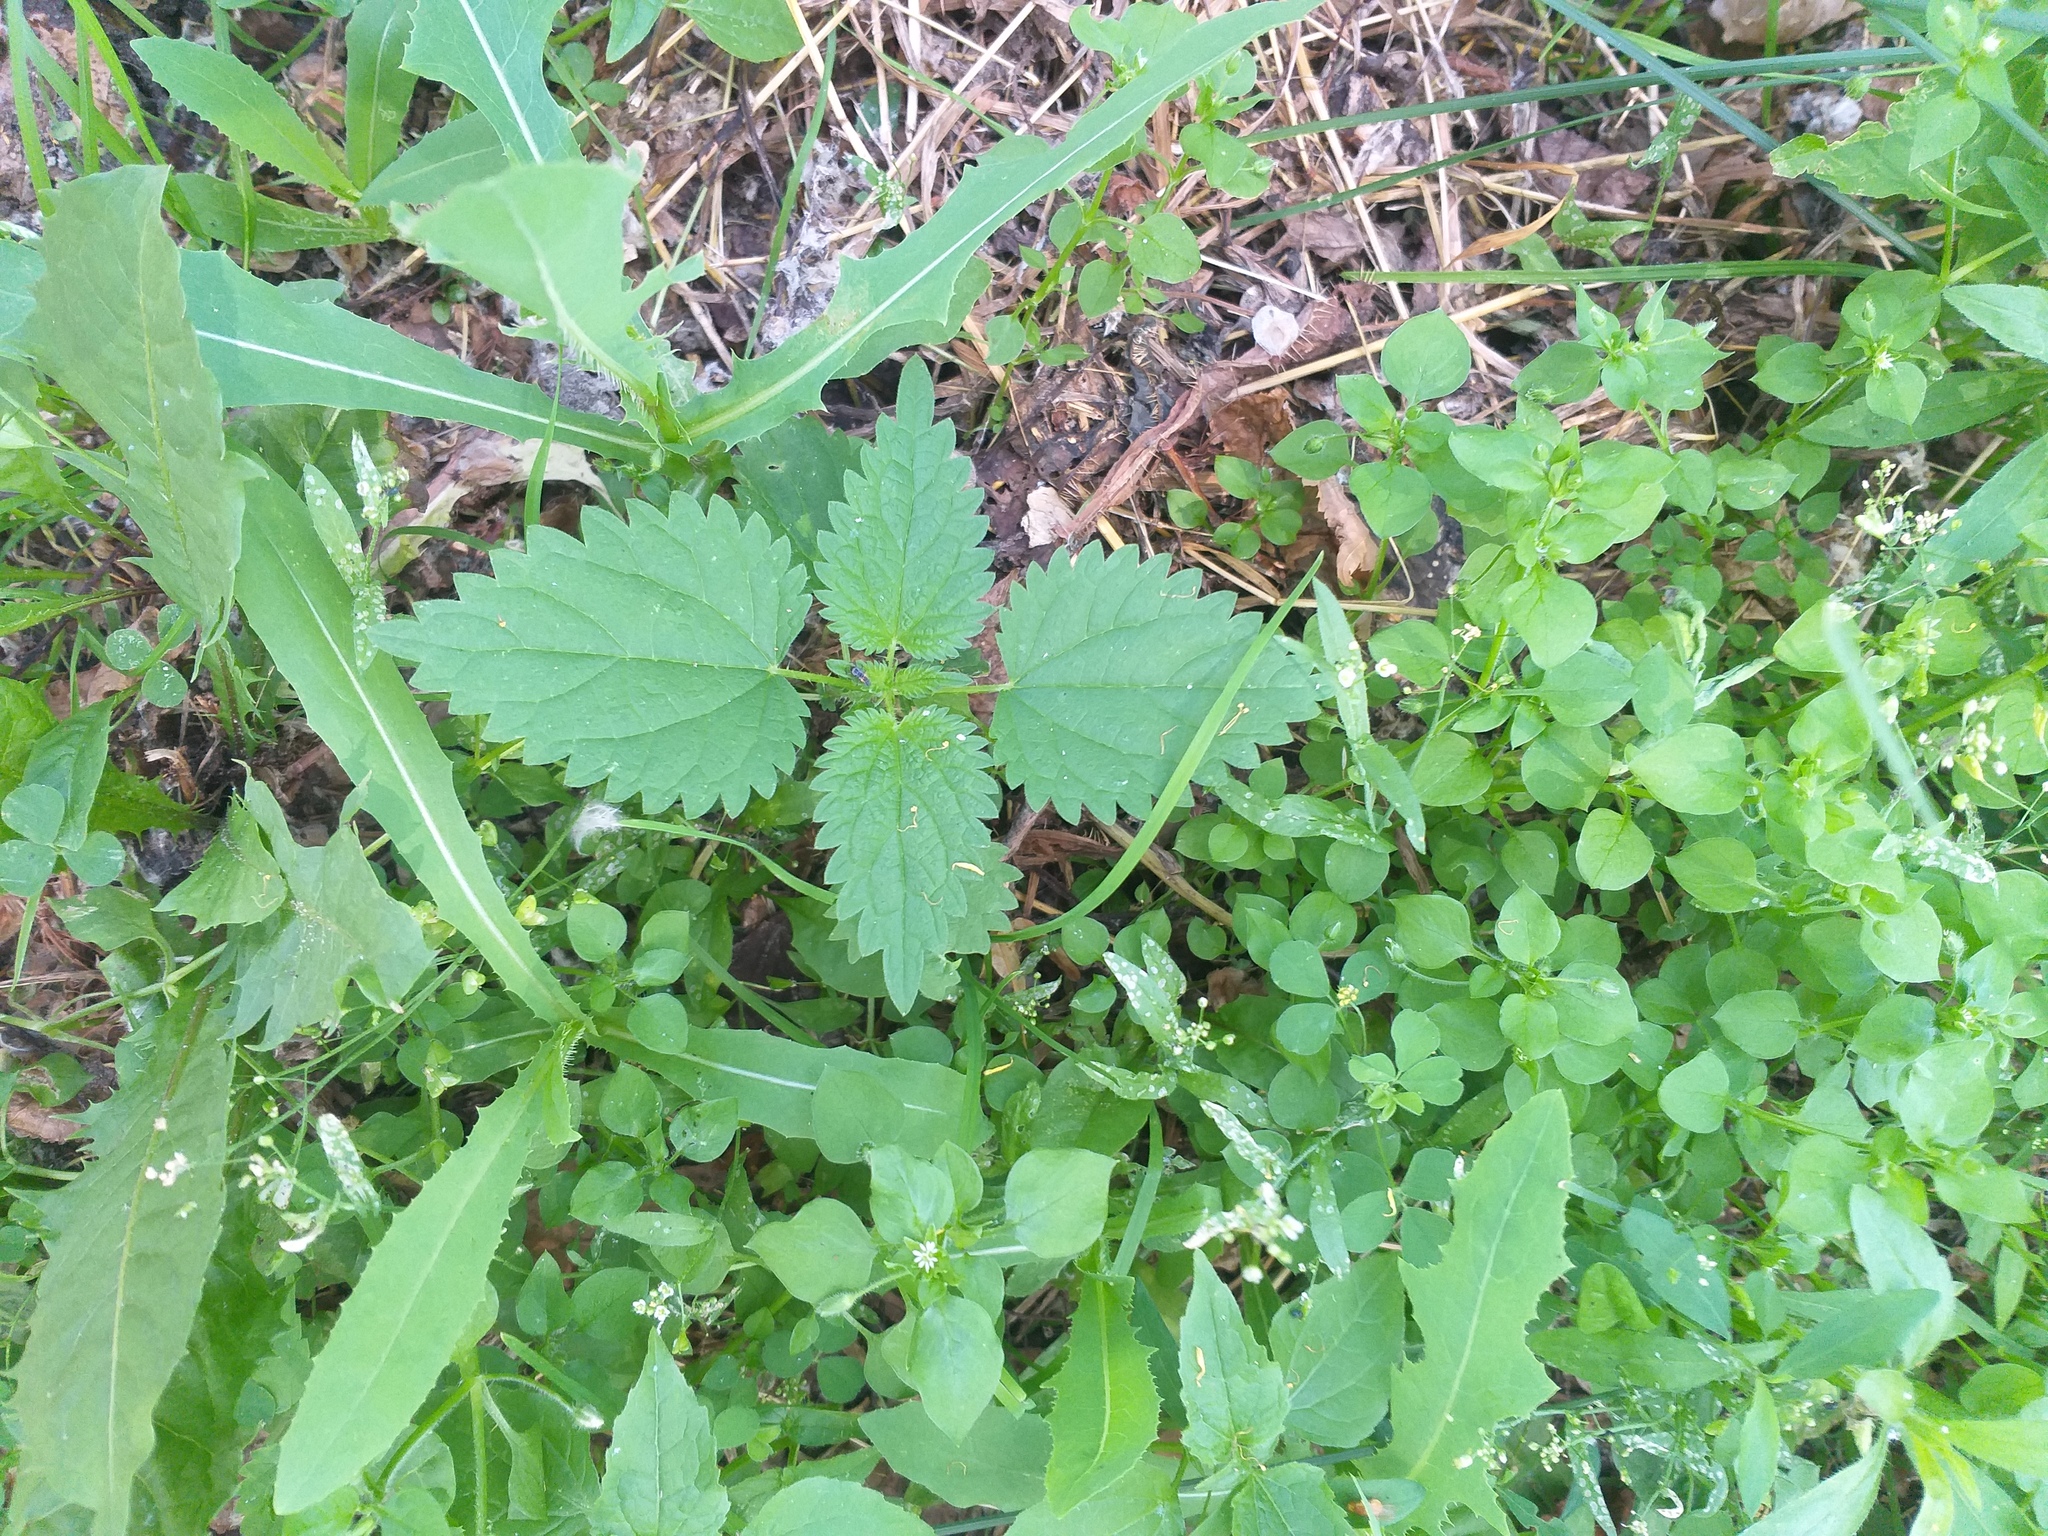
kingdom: Plantae
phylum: Tracheophyta
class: Magnoliopsida
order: Rosales
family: Urticaceae
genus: Urtica
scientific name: Urtica dioica
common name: Common nettle
